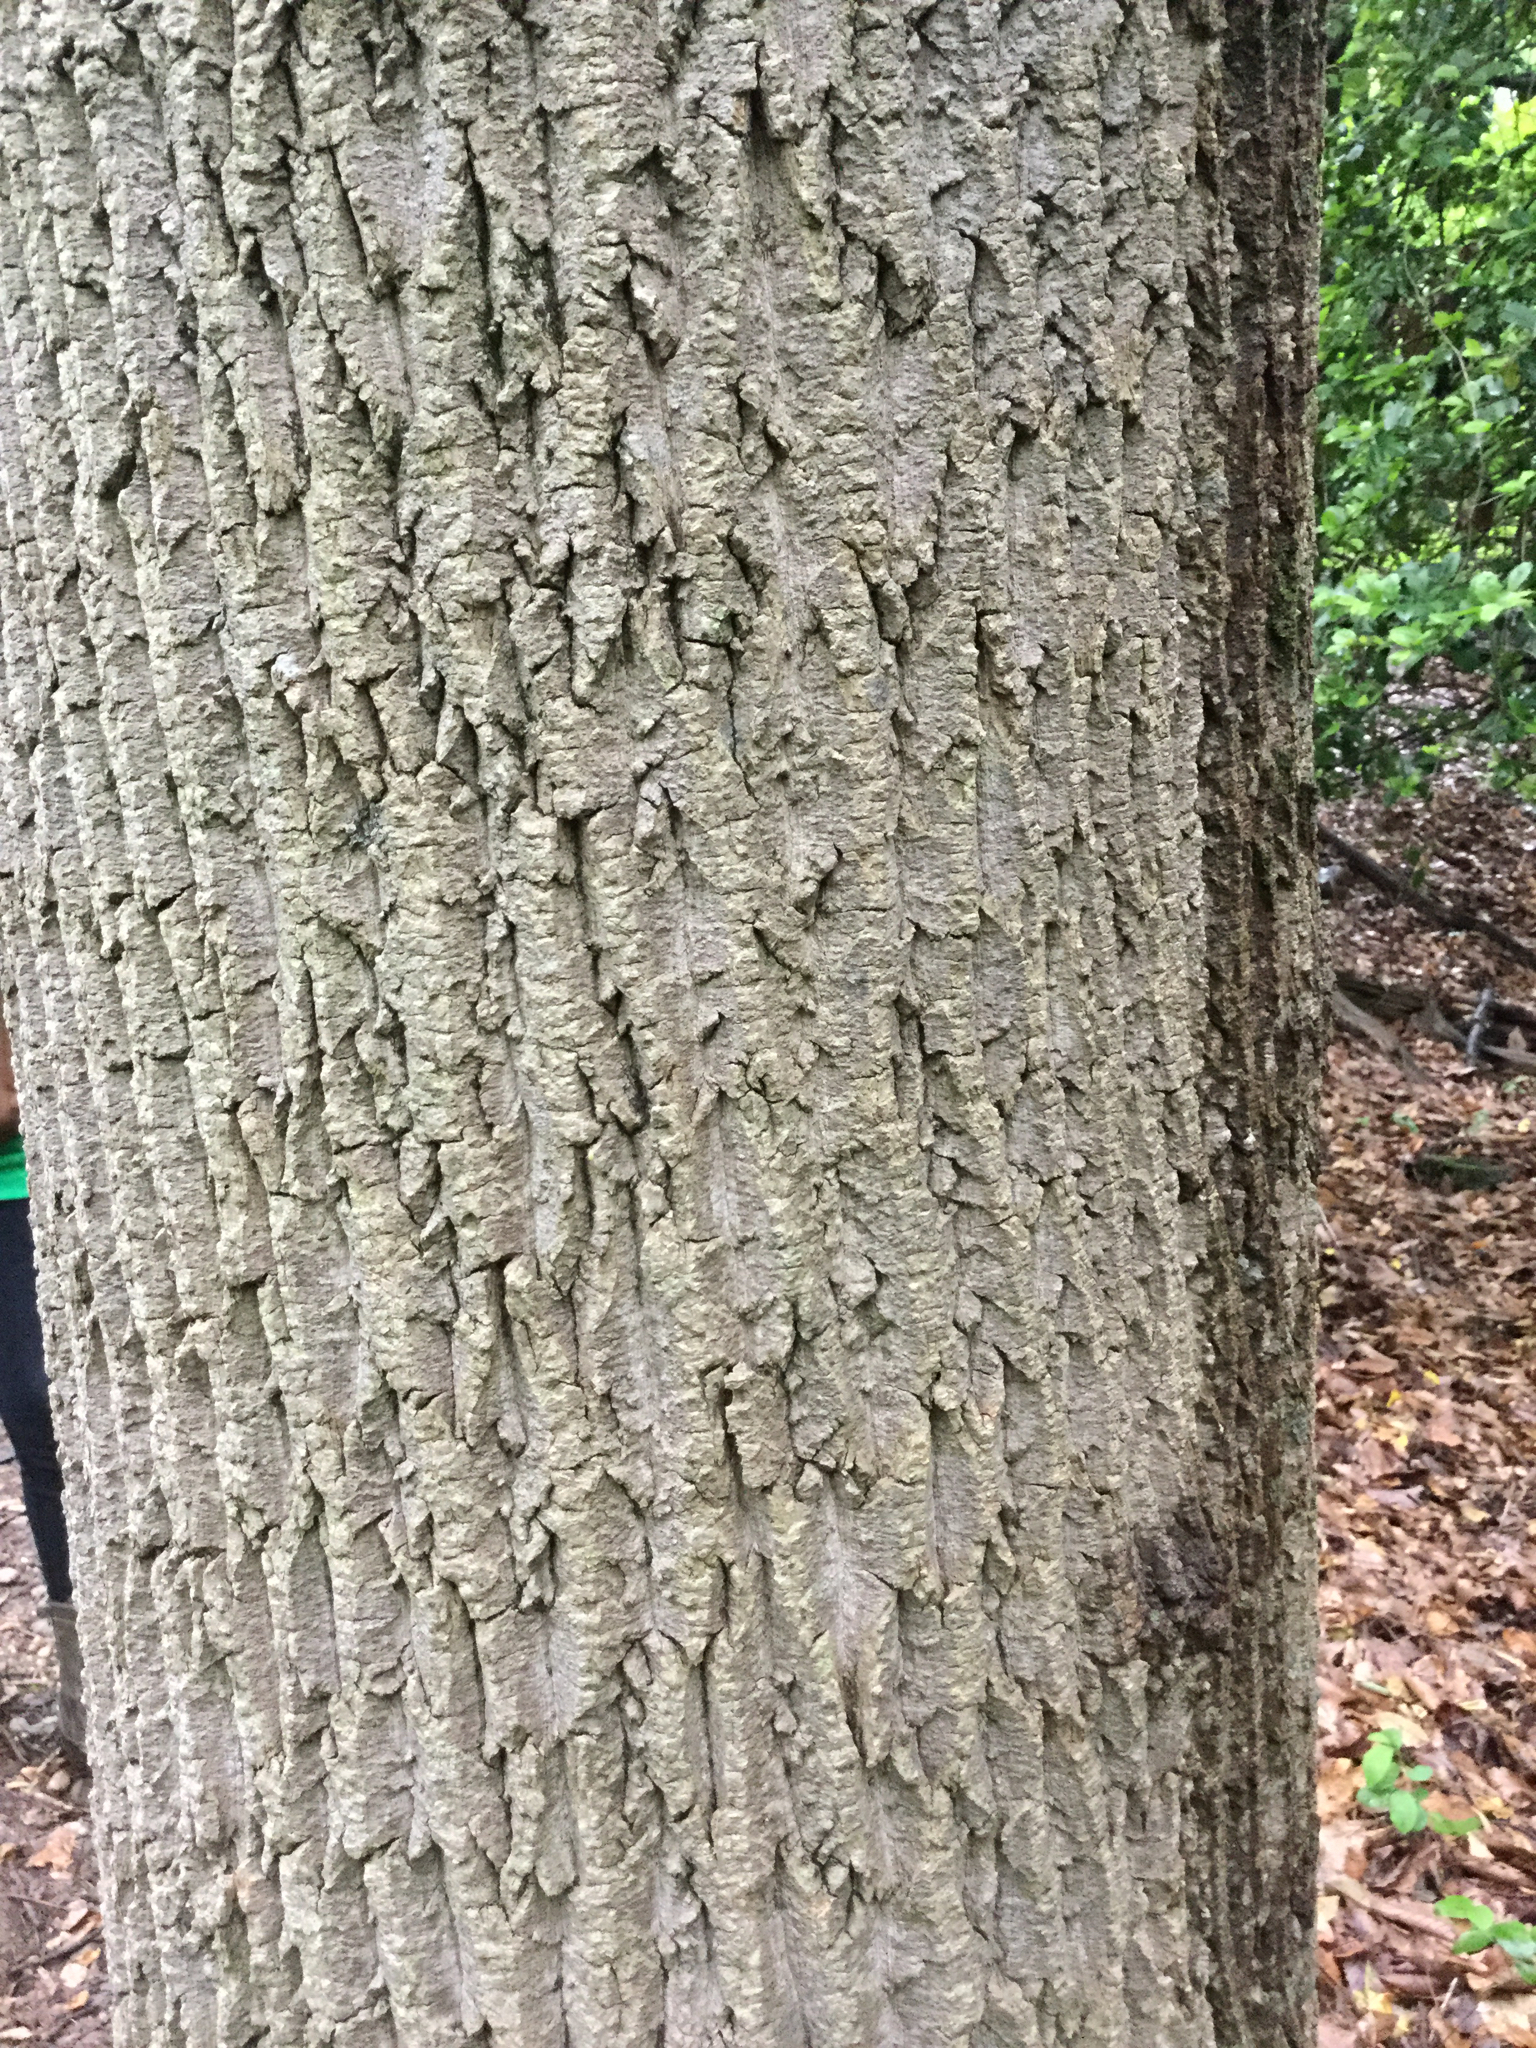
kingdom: Plantae
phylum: Tracheophyta
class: Magnoliopsida
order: Magnoliales
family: Magnoliaceae
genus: Liriodendron
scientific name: Liriodendron tulipifera
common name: Tulip tree
